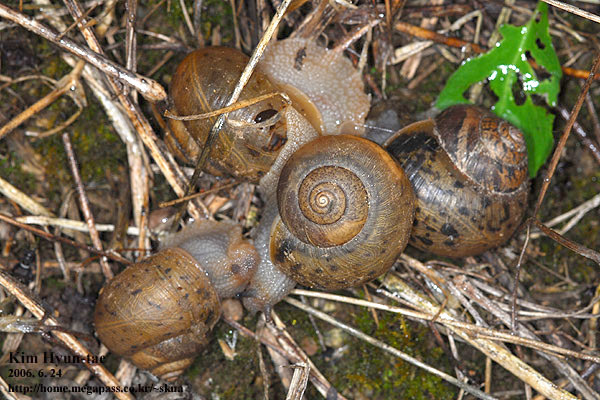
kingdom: Animalia
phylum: Mollusca
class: Gastropoda
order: Stylommatophora
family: Camaenidae
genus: Acusta
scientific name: Acusta redfieldi
